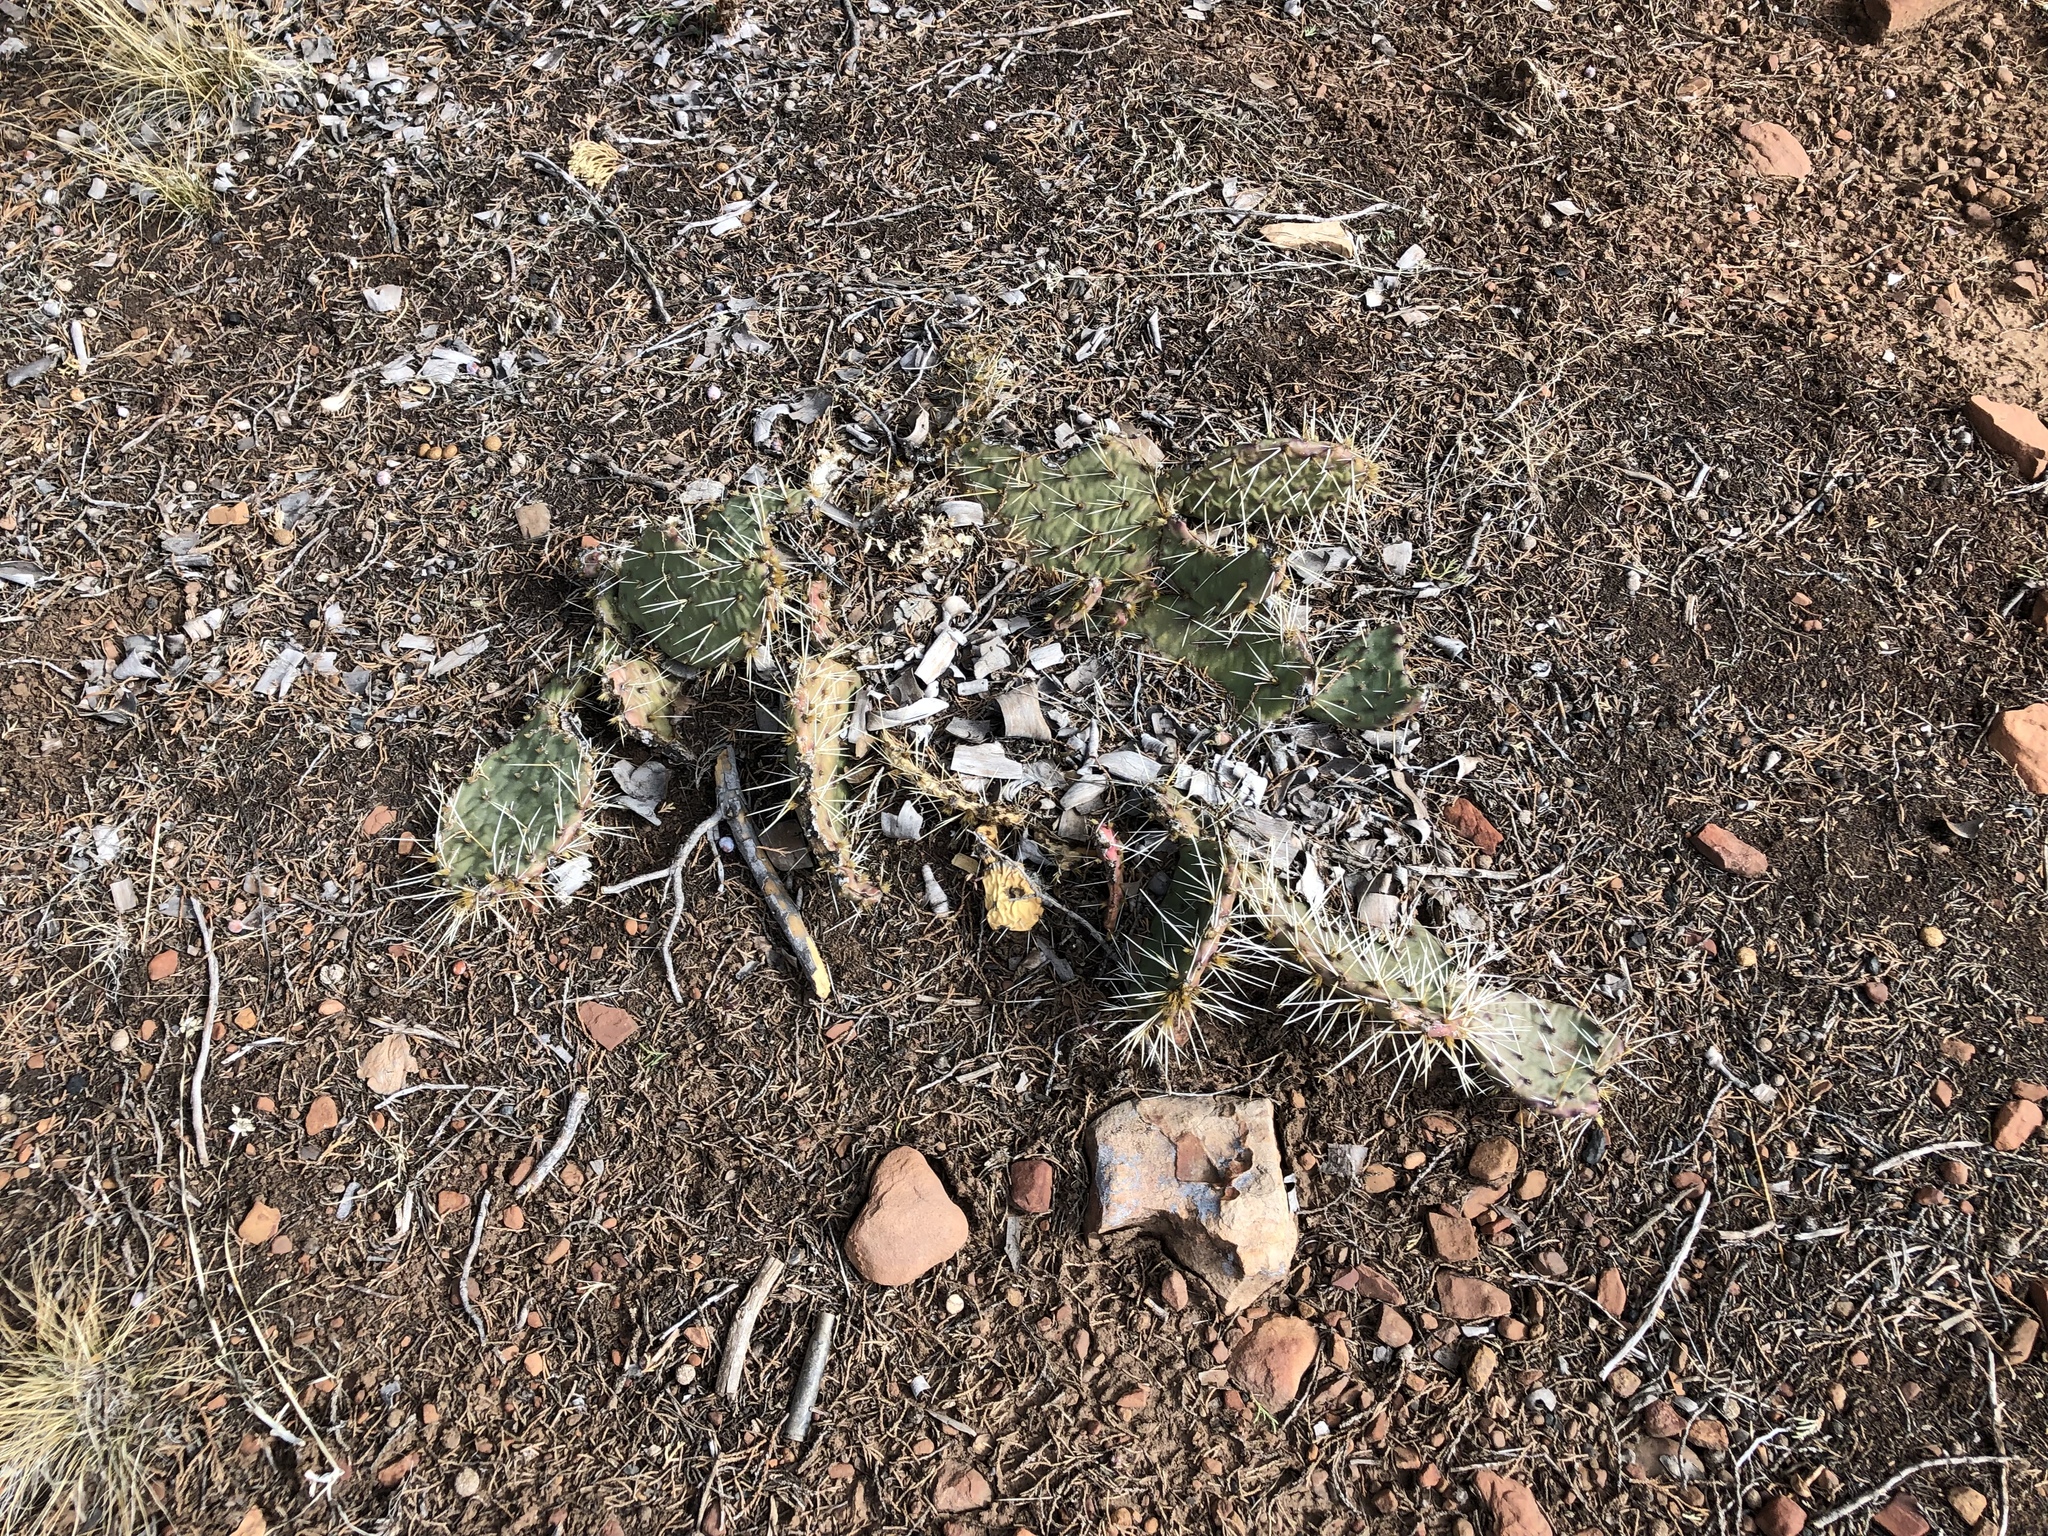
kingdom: Plantae
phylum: Tracheophyta
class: Magnoliopsida
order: Caryophyllales
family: Cactaceae
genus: Opuntia
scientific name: Opuntia macrorhiza
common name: Grassland pricklypear
